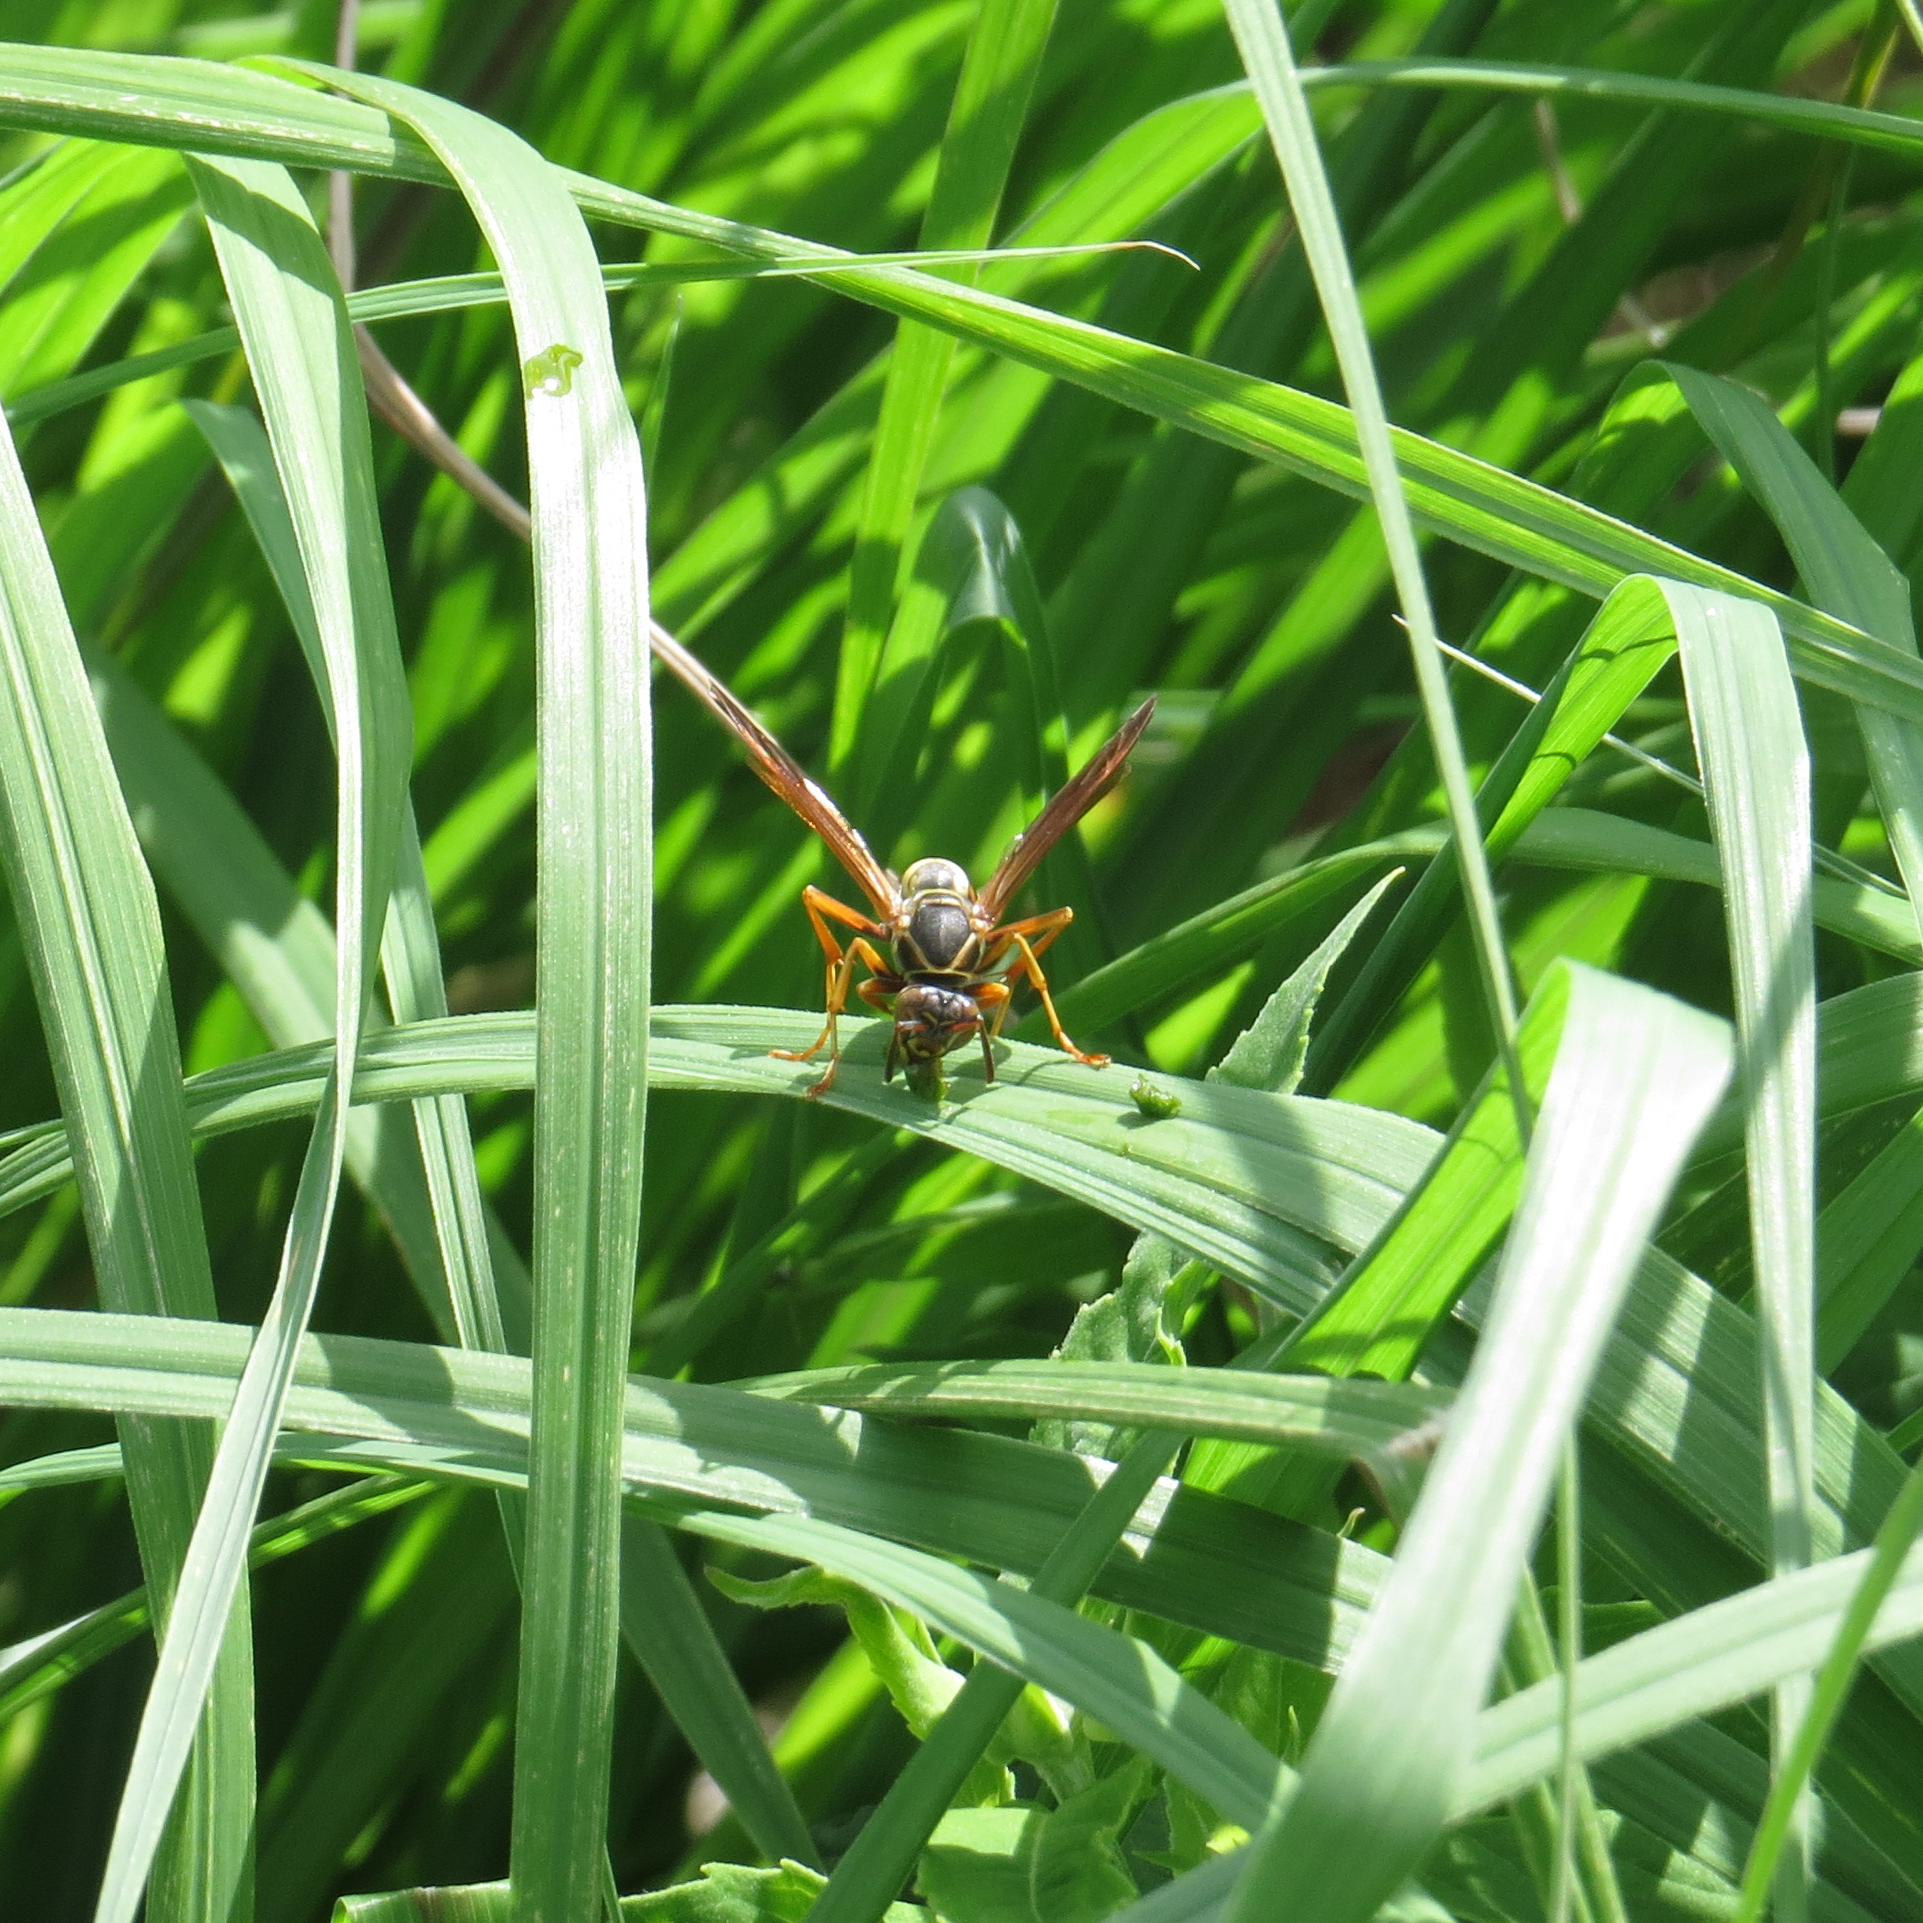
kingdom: Animalia
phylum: Arthropoda
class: Insecta
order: Hymenoptera
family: Eumenidae
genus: Polistes
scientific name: Polistes fuscatus
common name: Dark paper wasp
